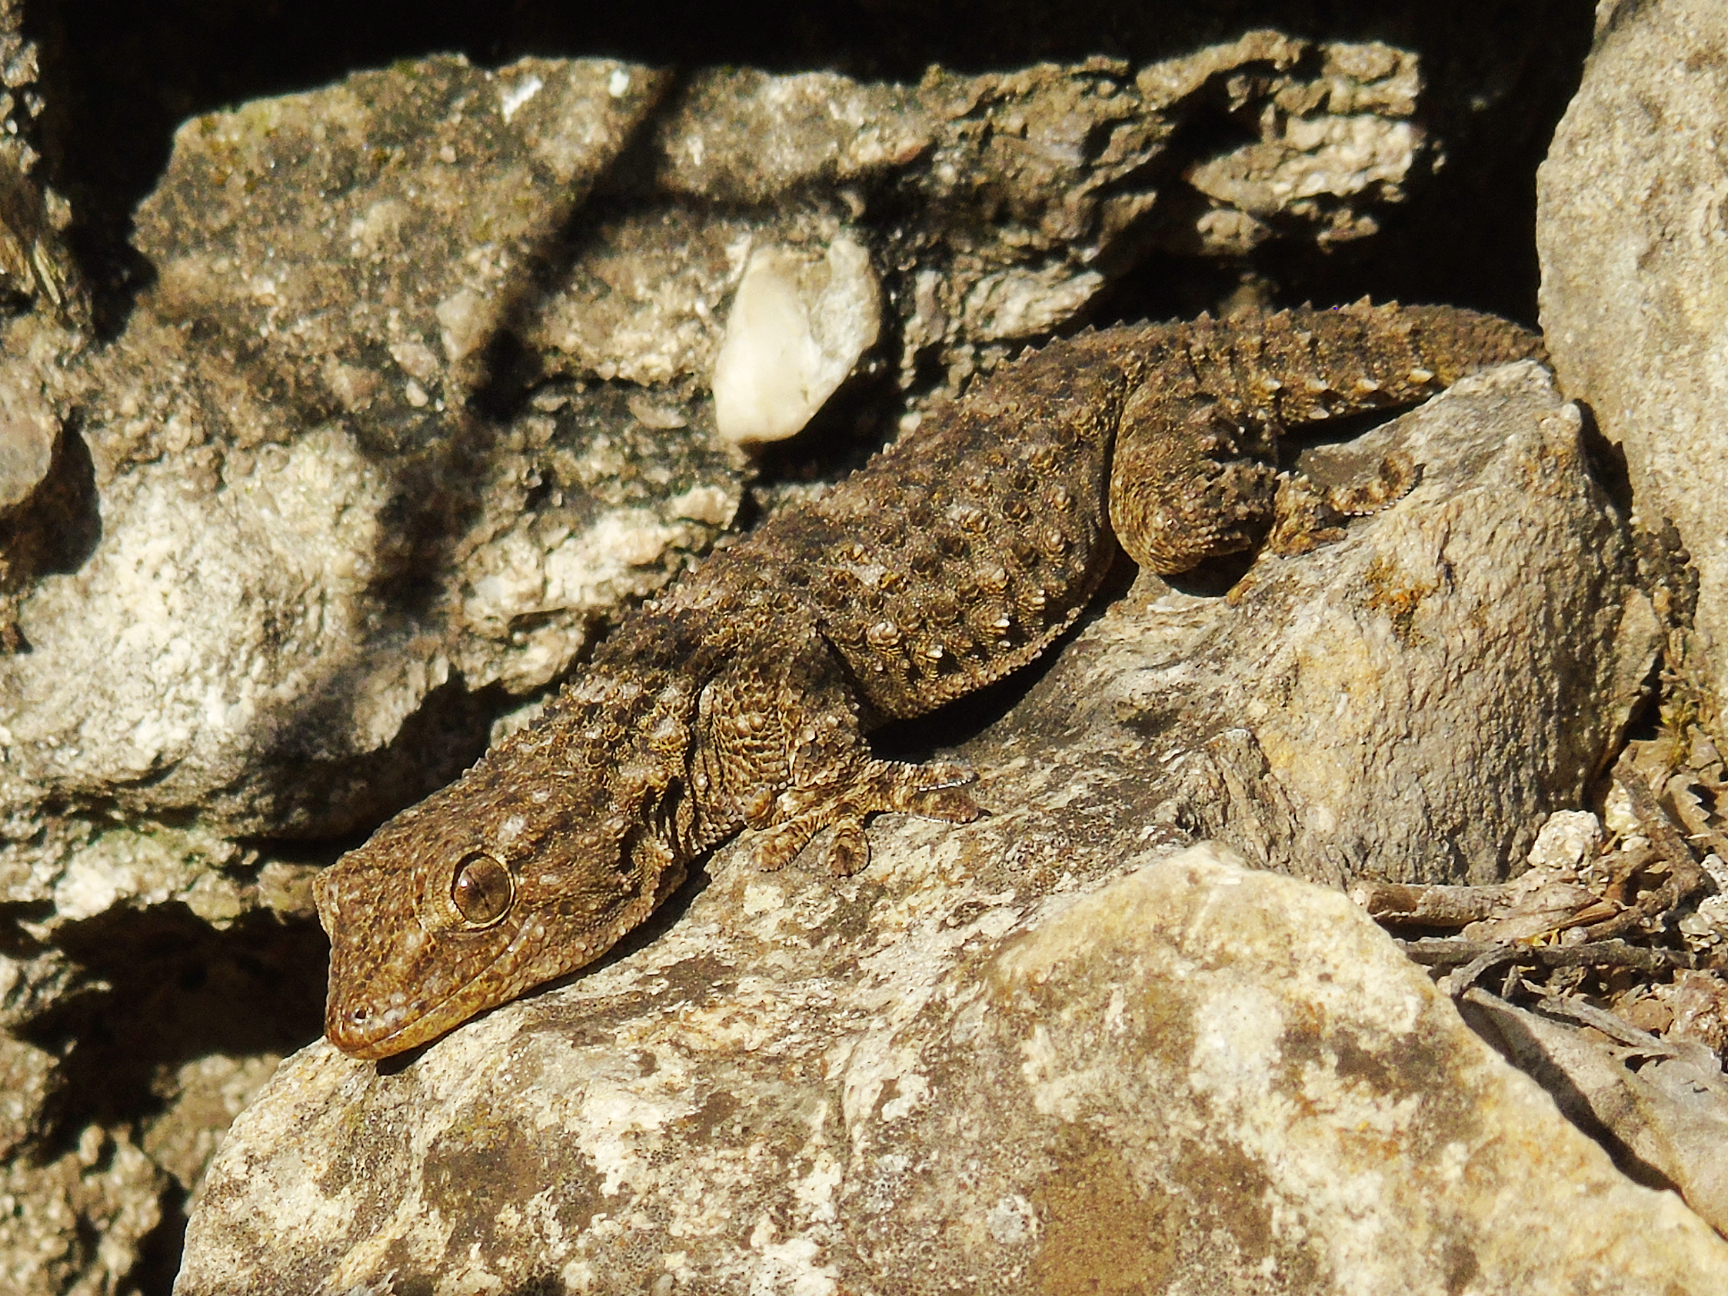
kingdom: Animalia
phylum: Chordata
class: Squamata
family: Phyllodactylidae
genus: Tarentola
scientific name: Tarentola mauritanica
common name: Moorish gecko
